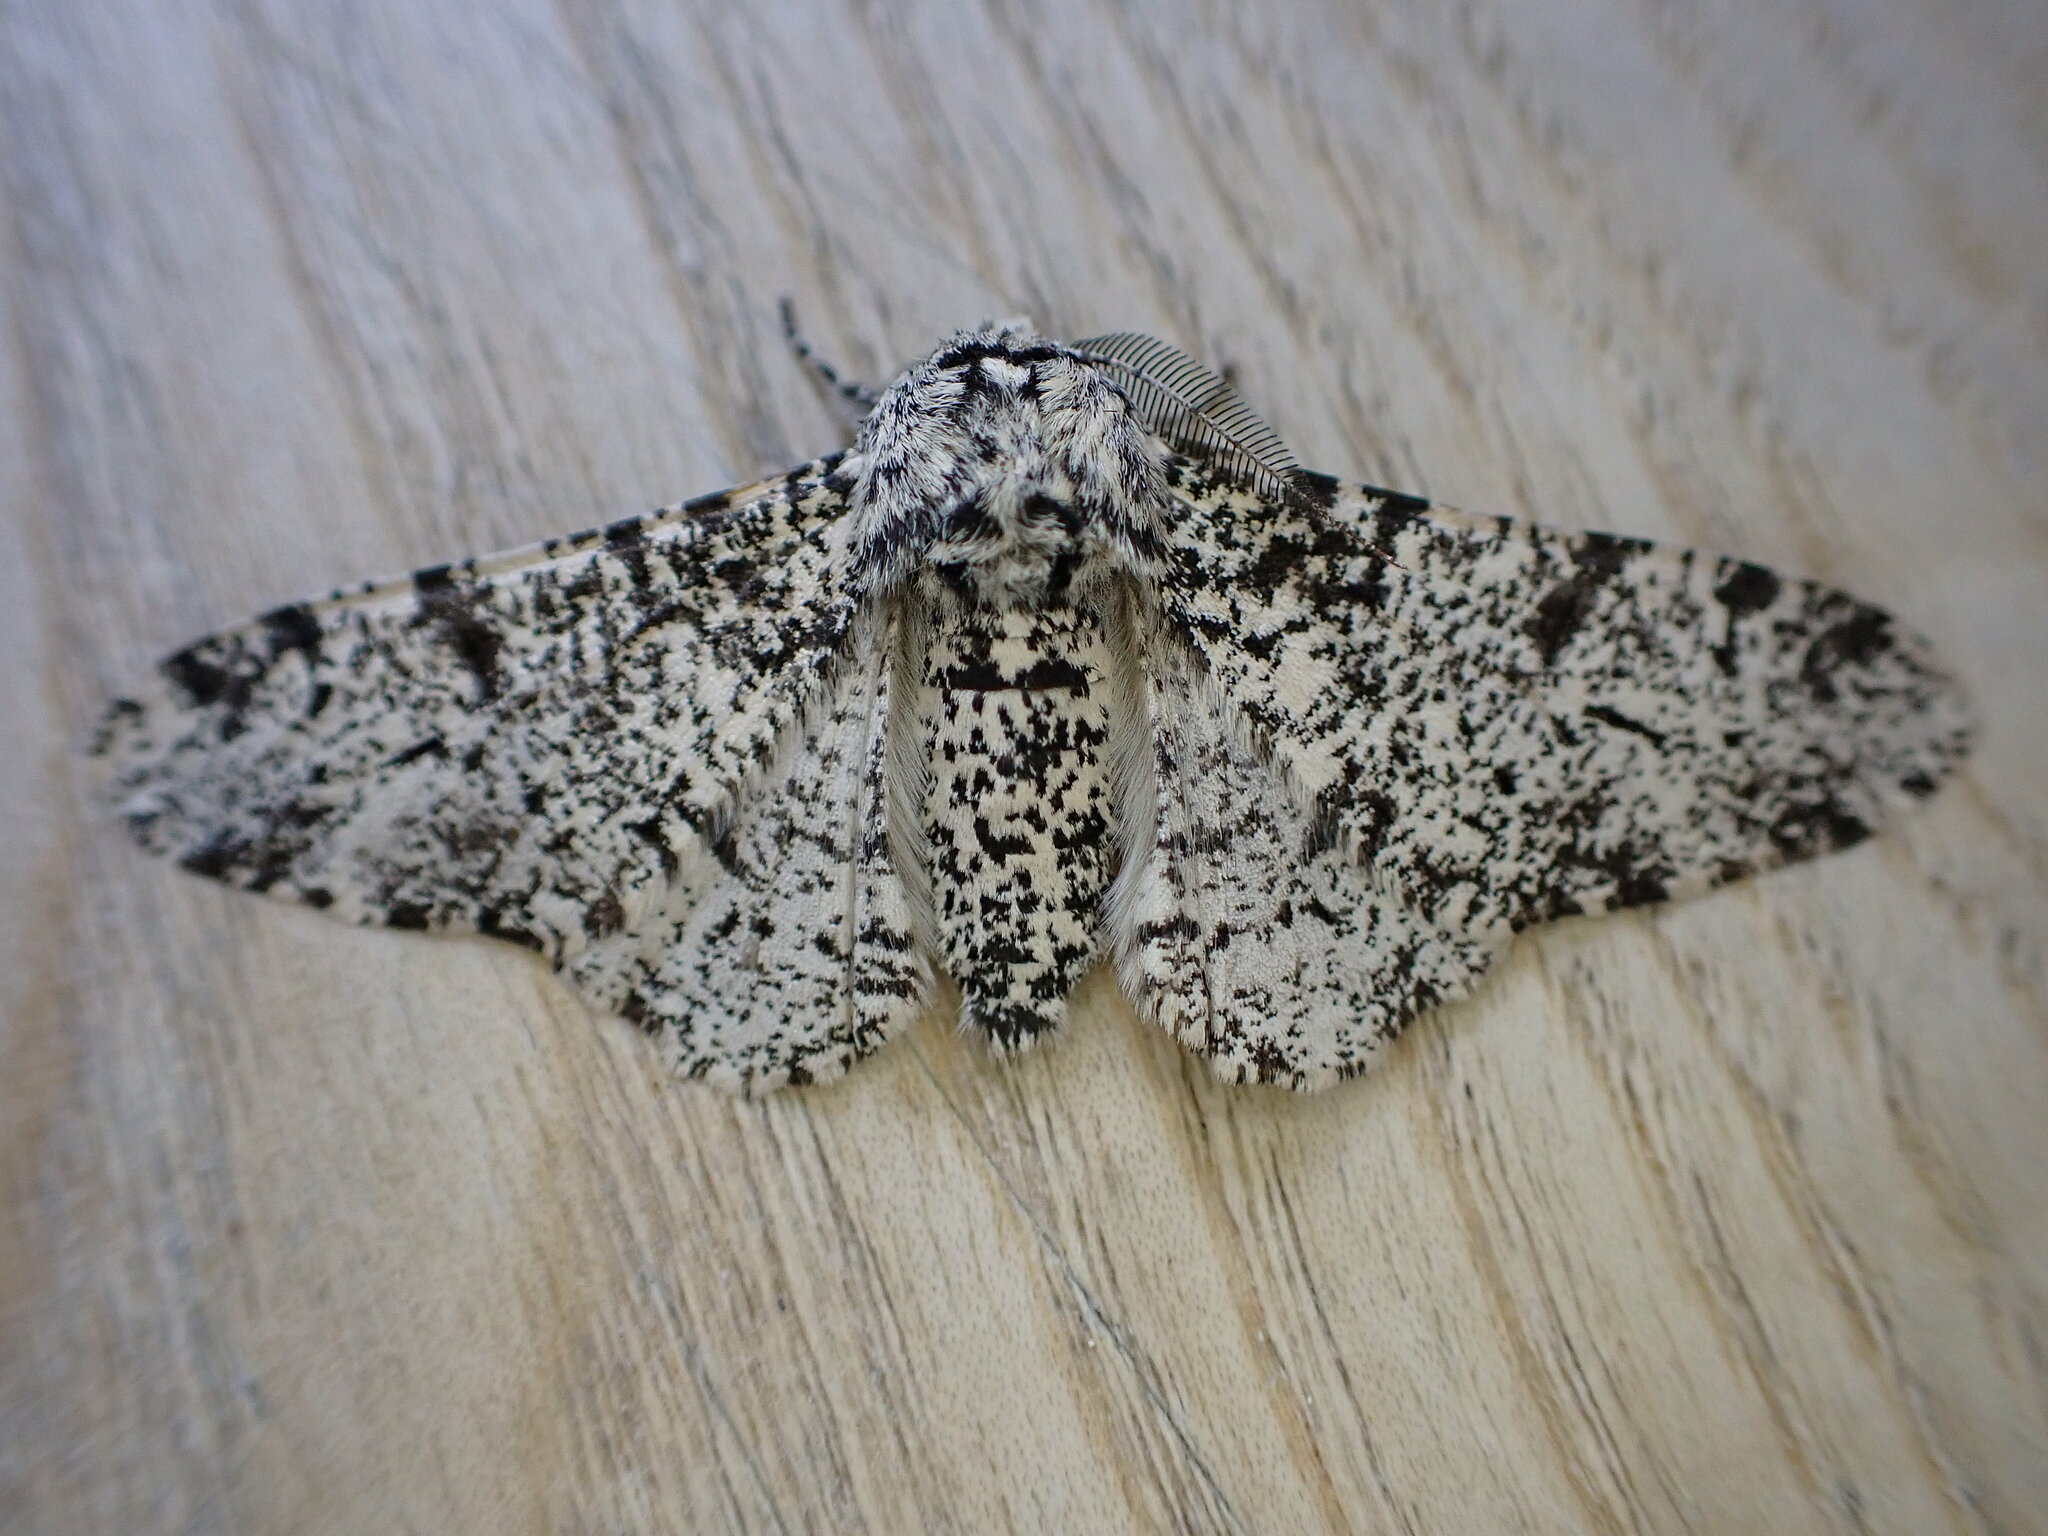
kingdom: Animalia
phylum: Arthropoda
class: Insecta
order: Lepidoptera
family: Geometridae
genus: Biston
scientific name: Biston betularia
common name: Peppered moth
